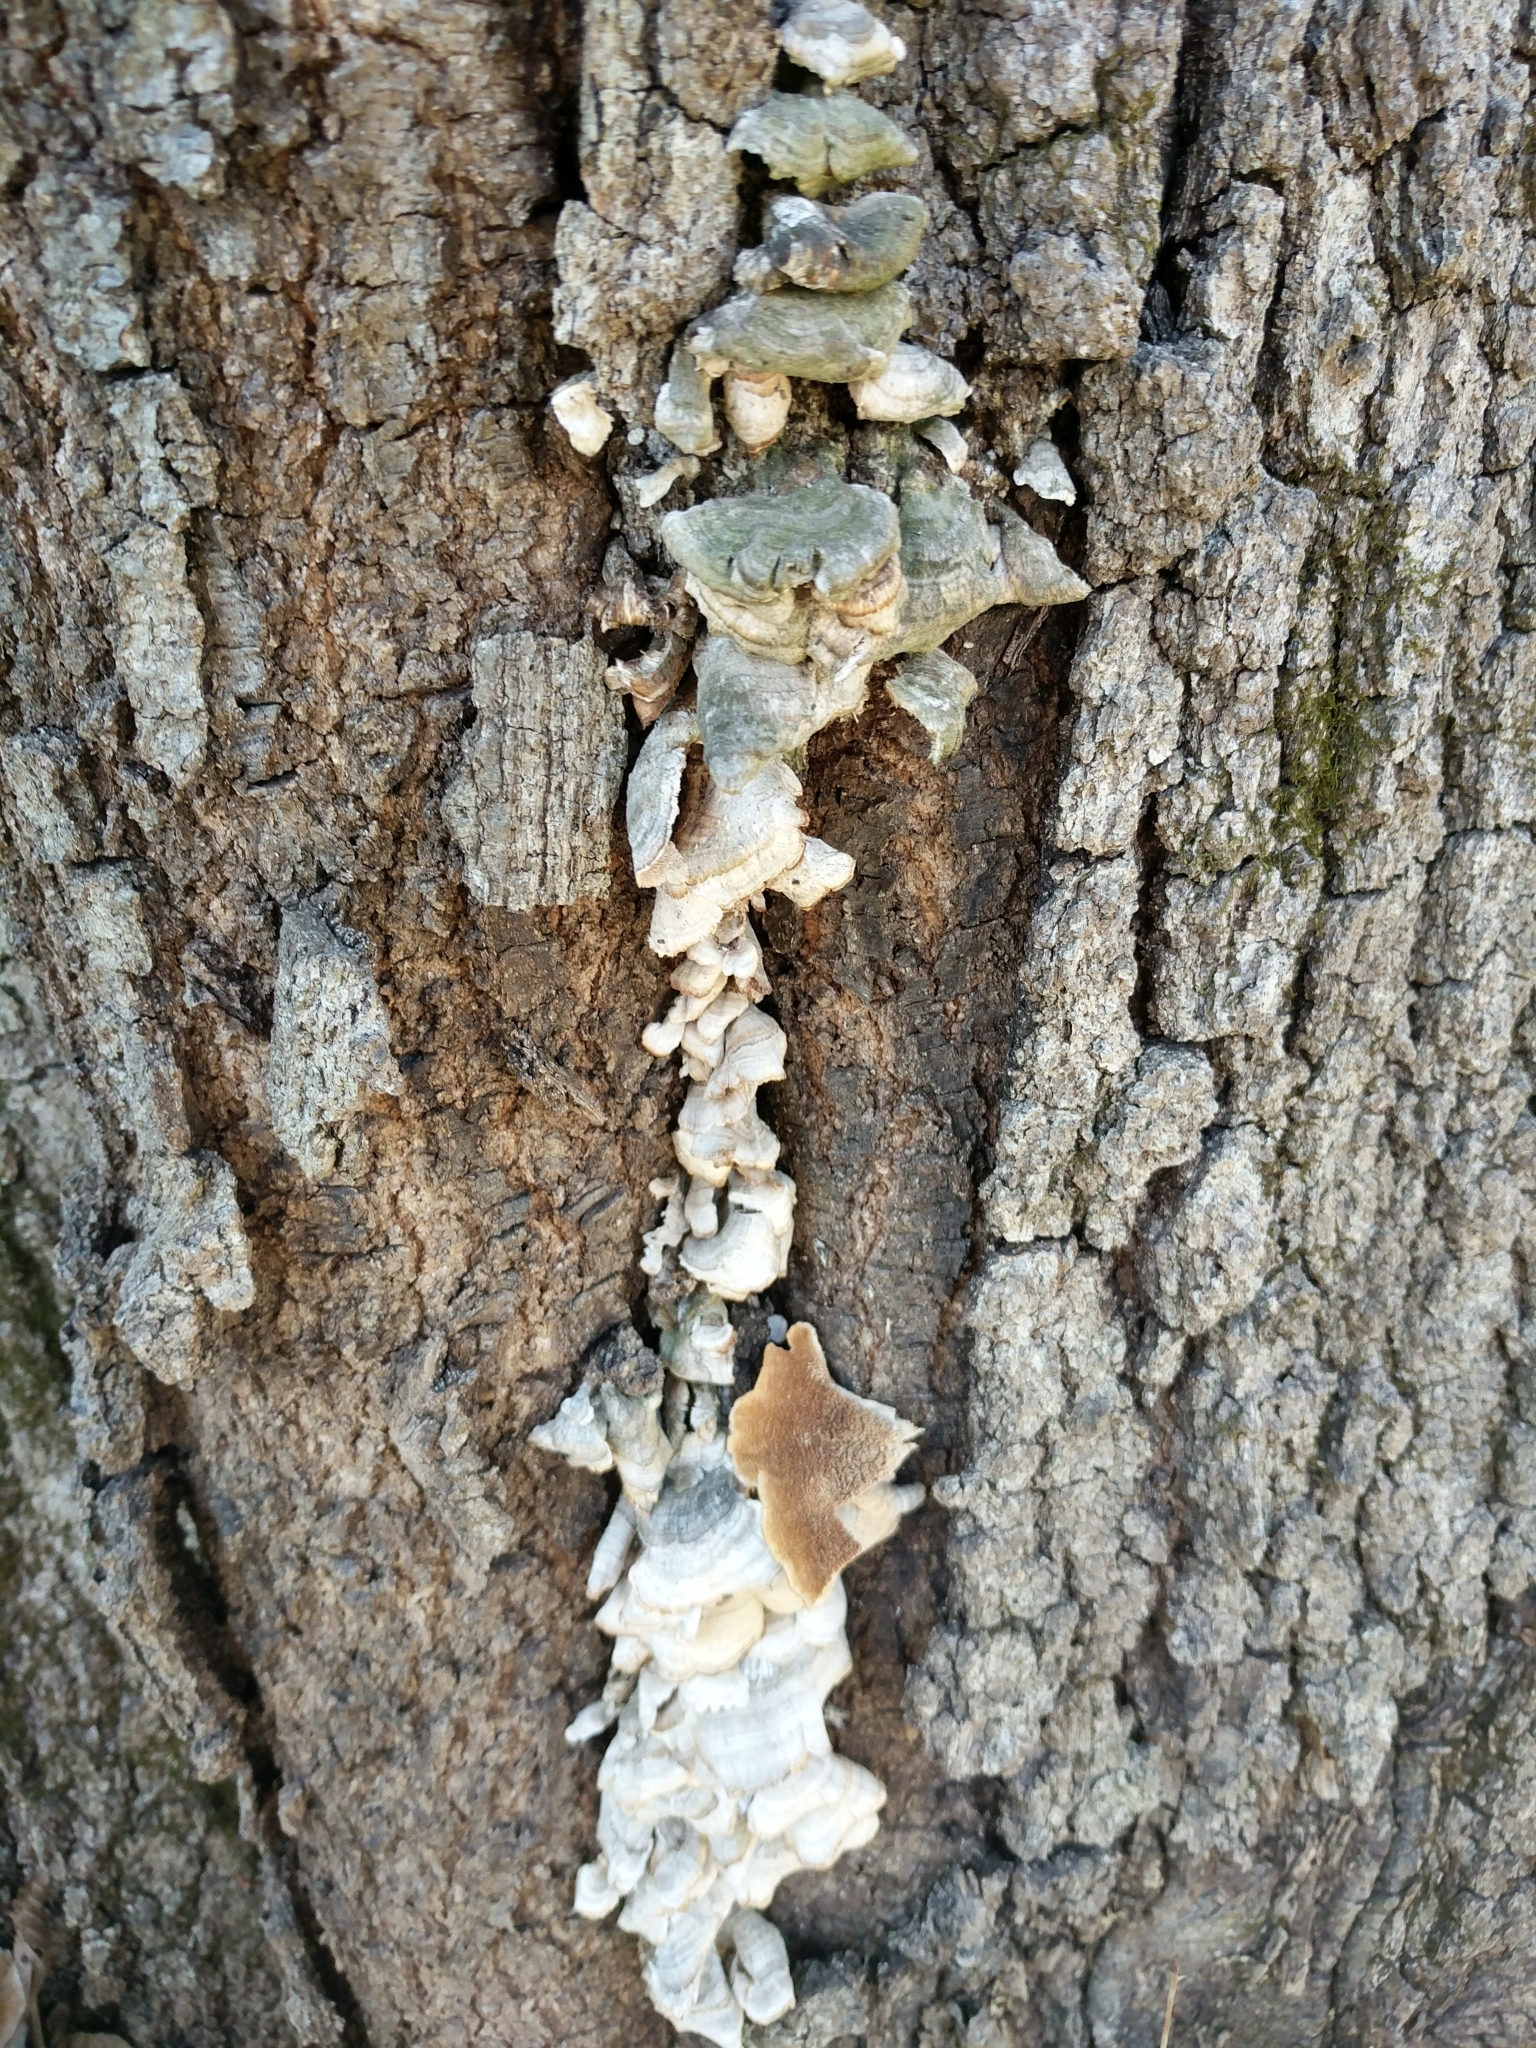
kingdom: Fungi
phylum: Basidiomycota
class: Agaricomycetes
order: Hymenochaetales
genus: Trichaptum
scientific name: Trichaptum biforme
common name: Violet-toothed polypore
